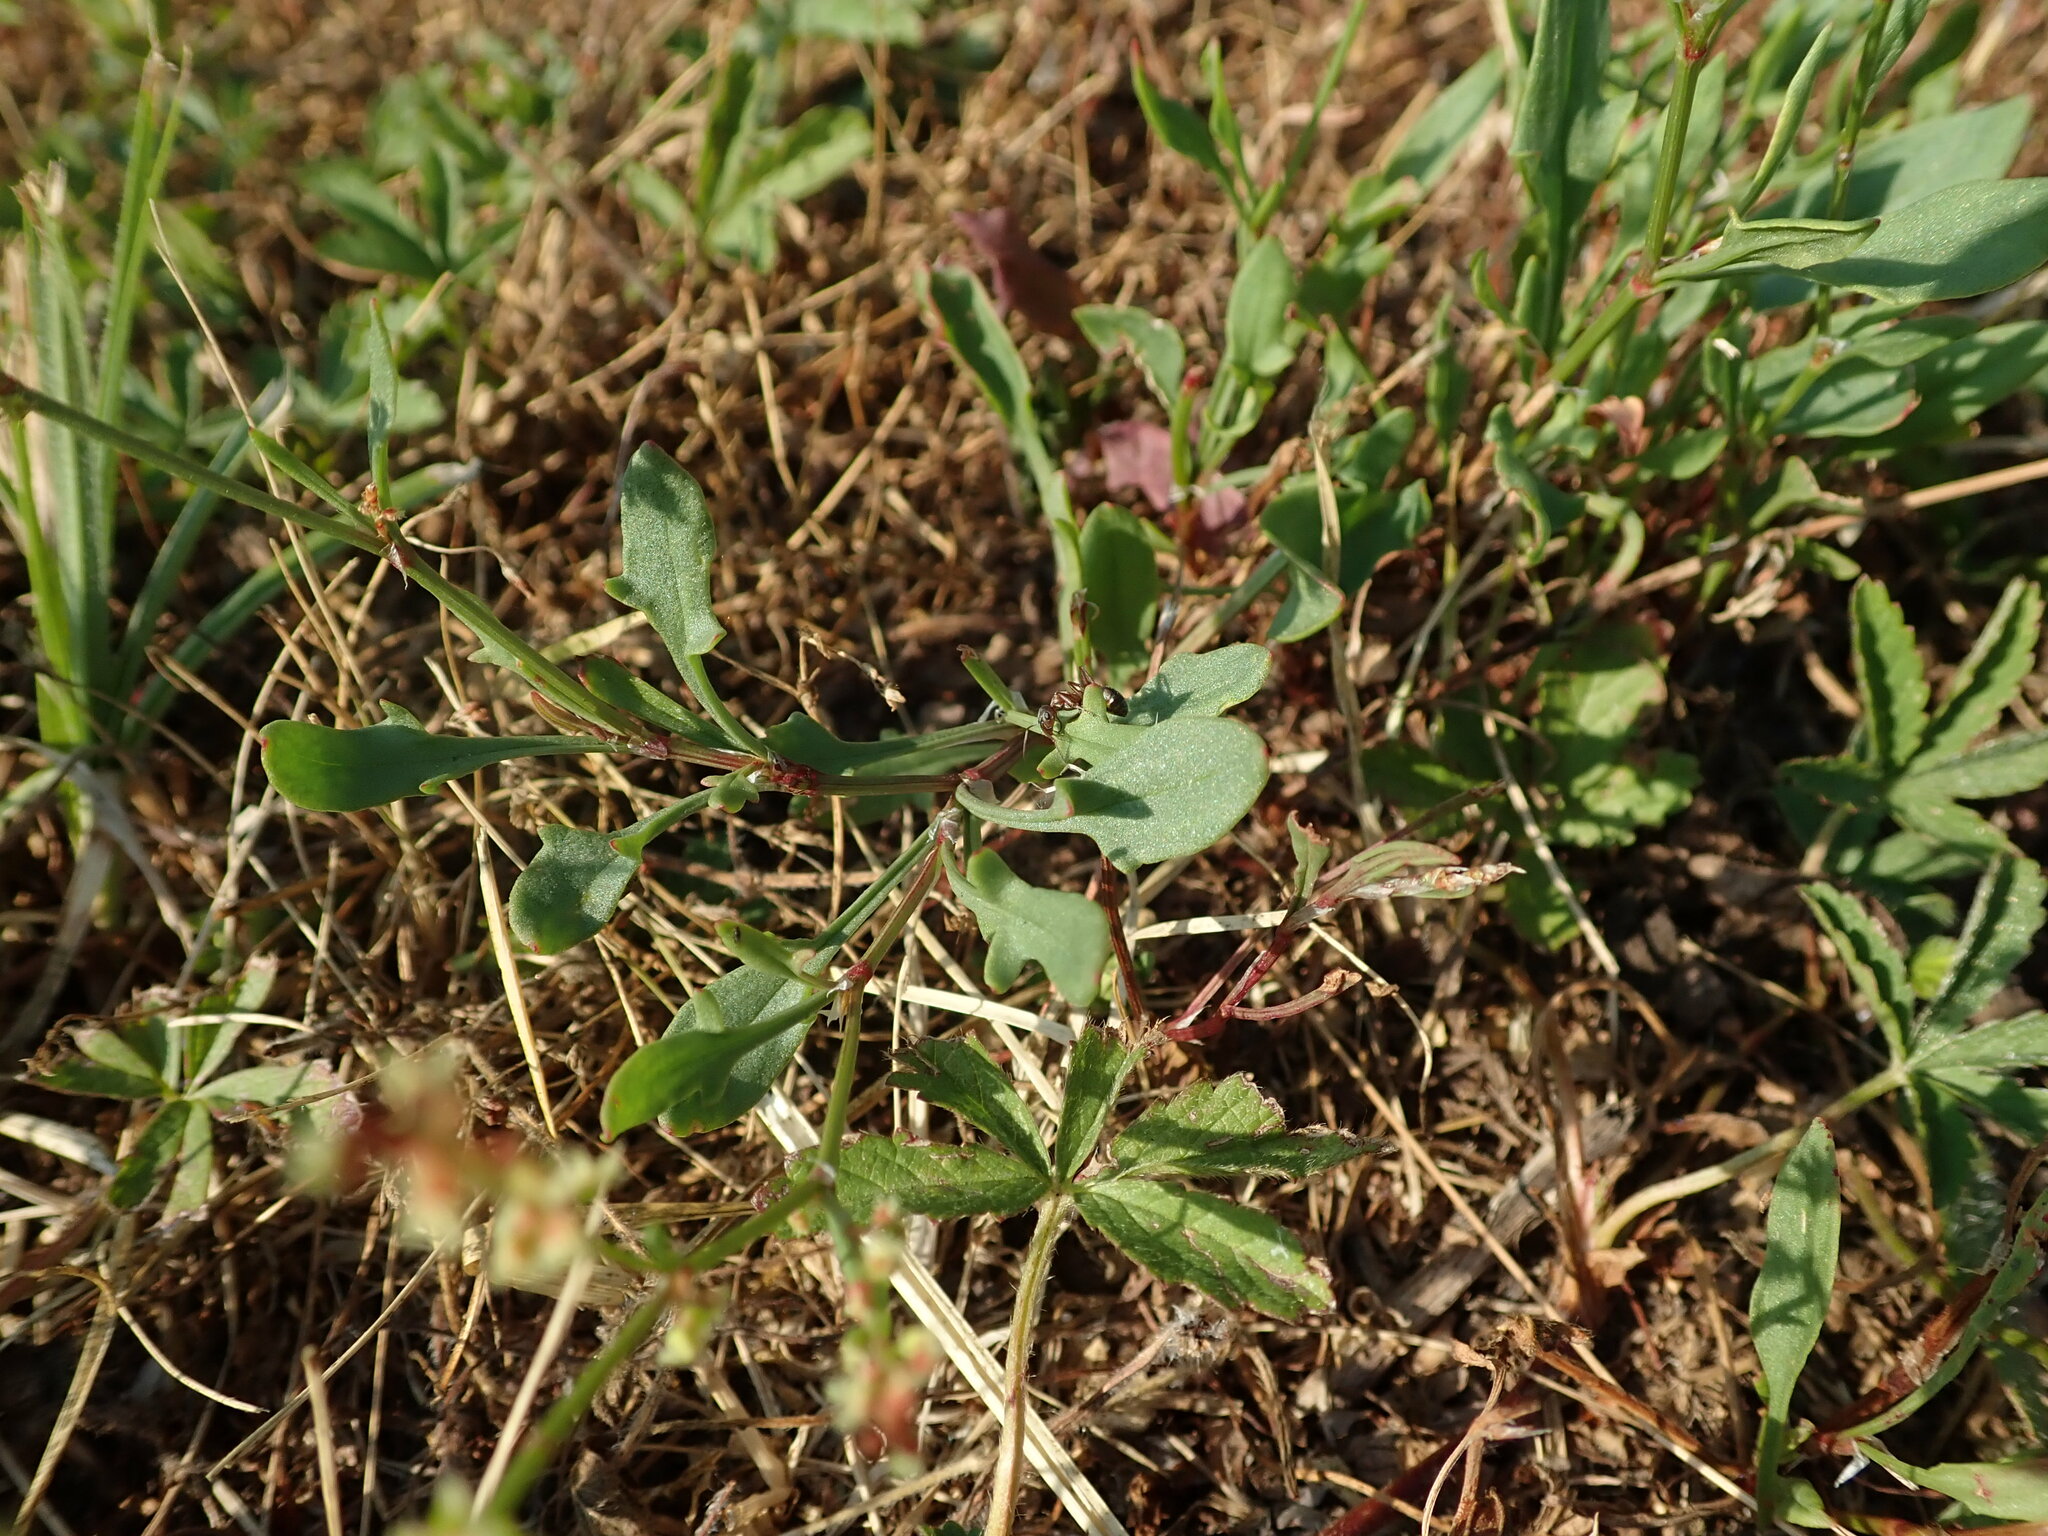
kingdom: Plantae
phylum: Tracheophyta
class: Magnoliopsida
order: Caryophyllales
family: Polygonaceae
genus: Rumex
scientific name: Rumex acetosella
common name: Common sheep sorrel
